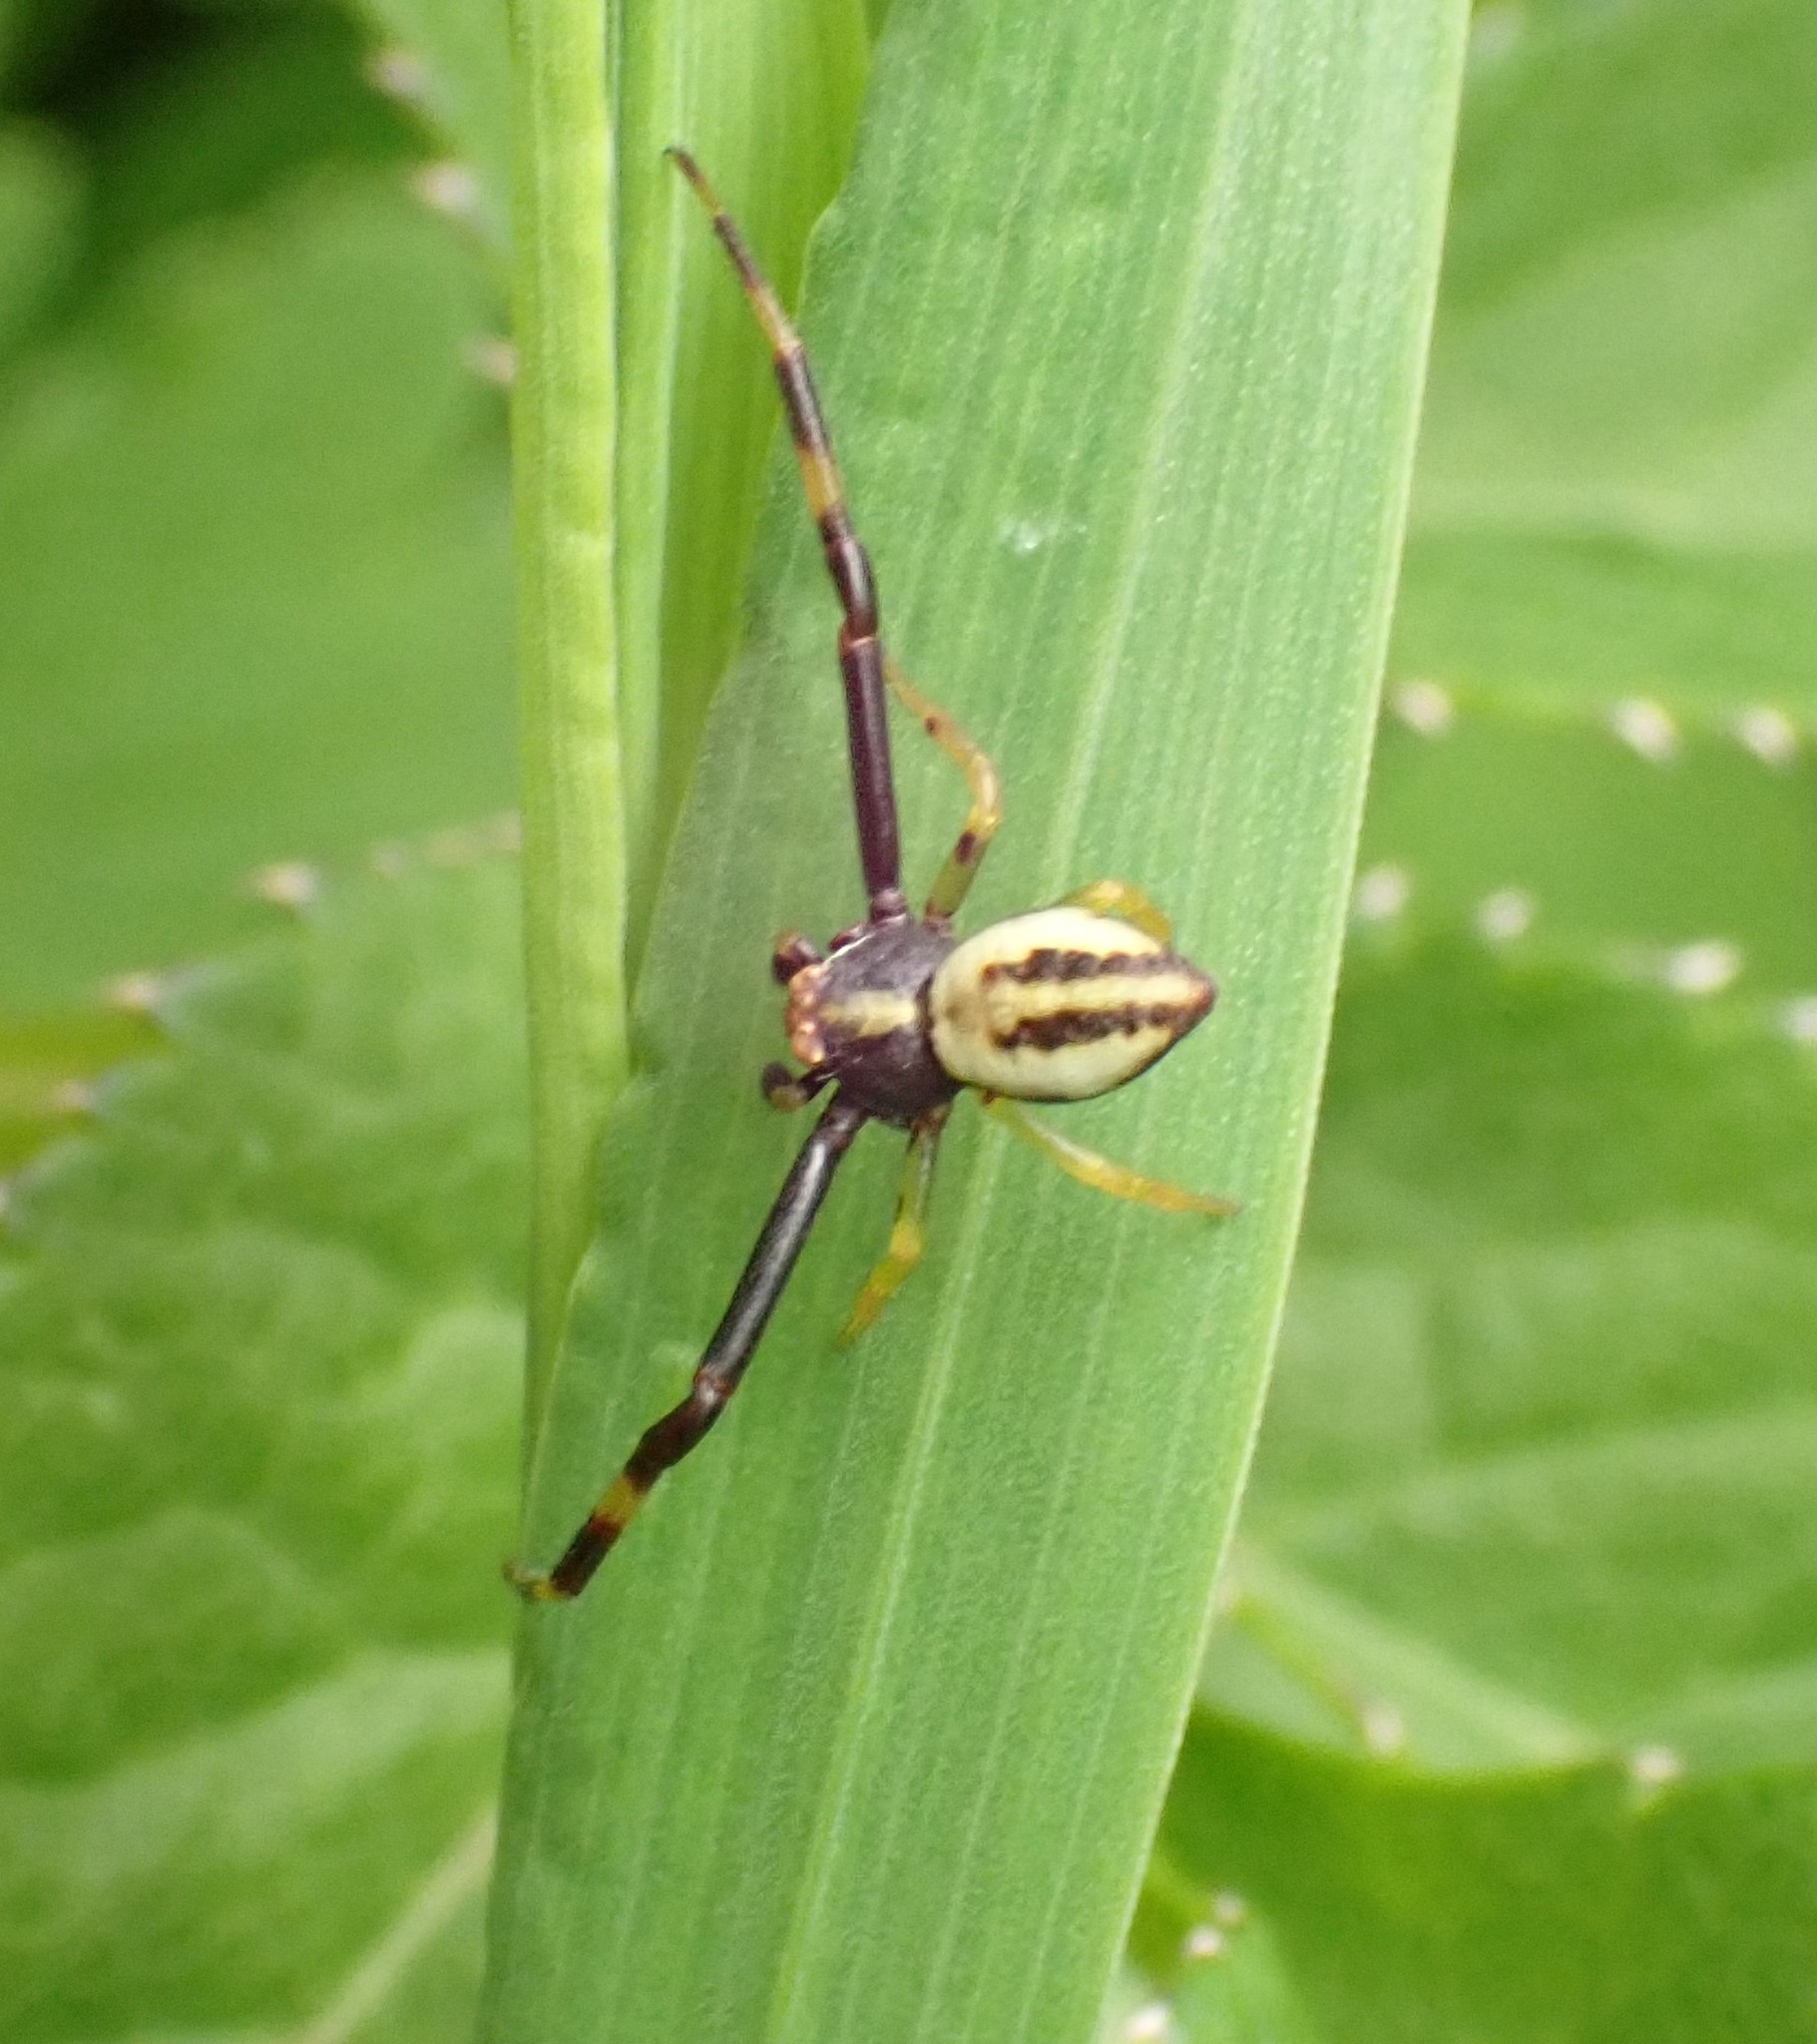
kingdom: Animalia
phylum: Arthropoda
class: Arachnida
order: Araneae
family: Thomisidae
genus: Misumena
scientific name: Misumena vatia
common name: Goldenrod crab spider
